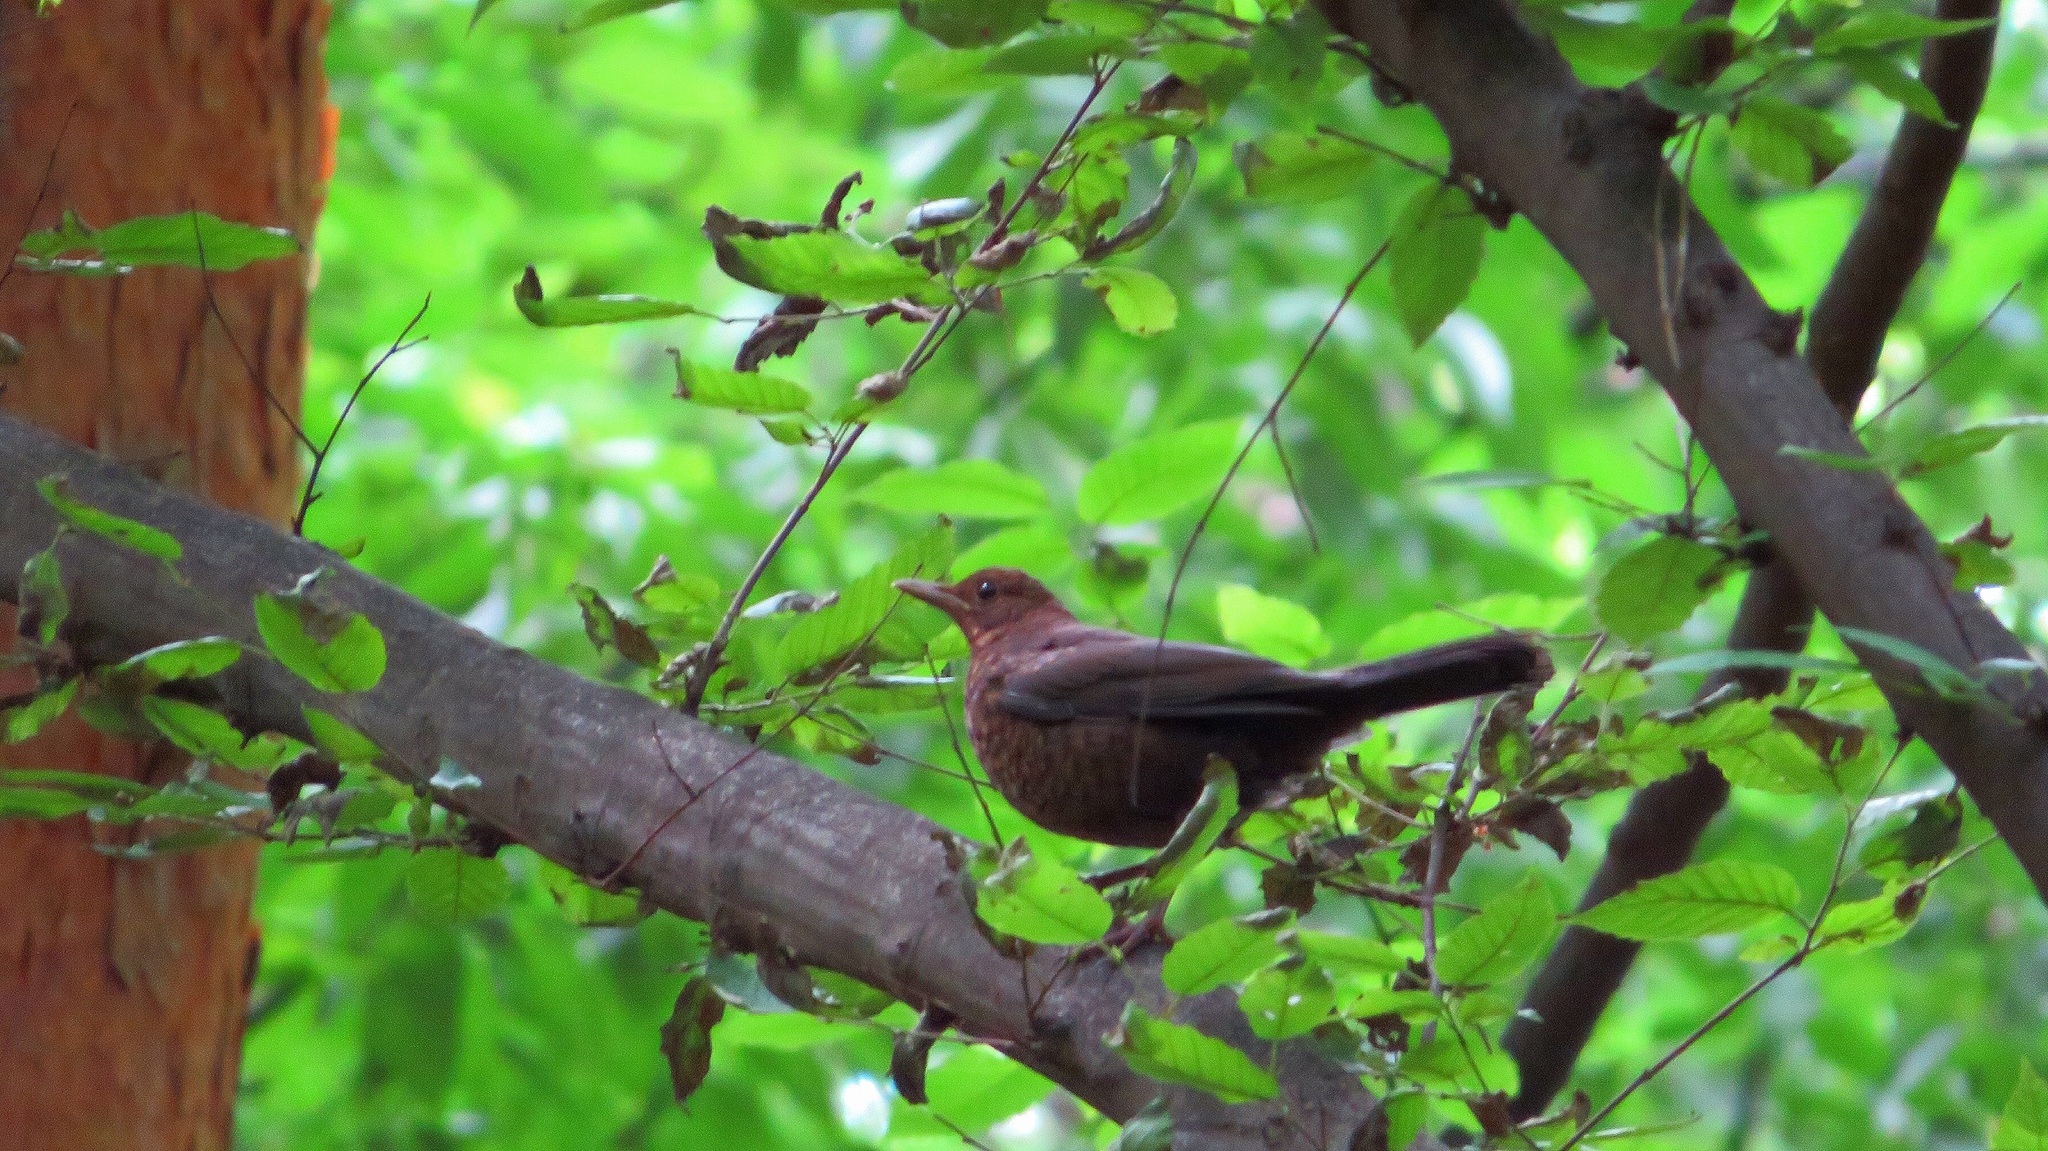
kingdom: Animalia
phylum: Chordata
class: Aves
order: Passeriformes
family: Turdidae
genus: Turdus
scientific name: Turdus merula
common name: Common blackbird
